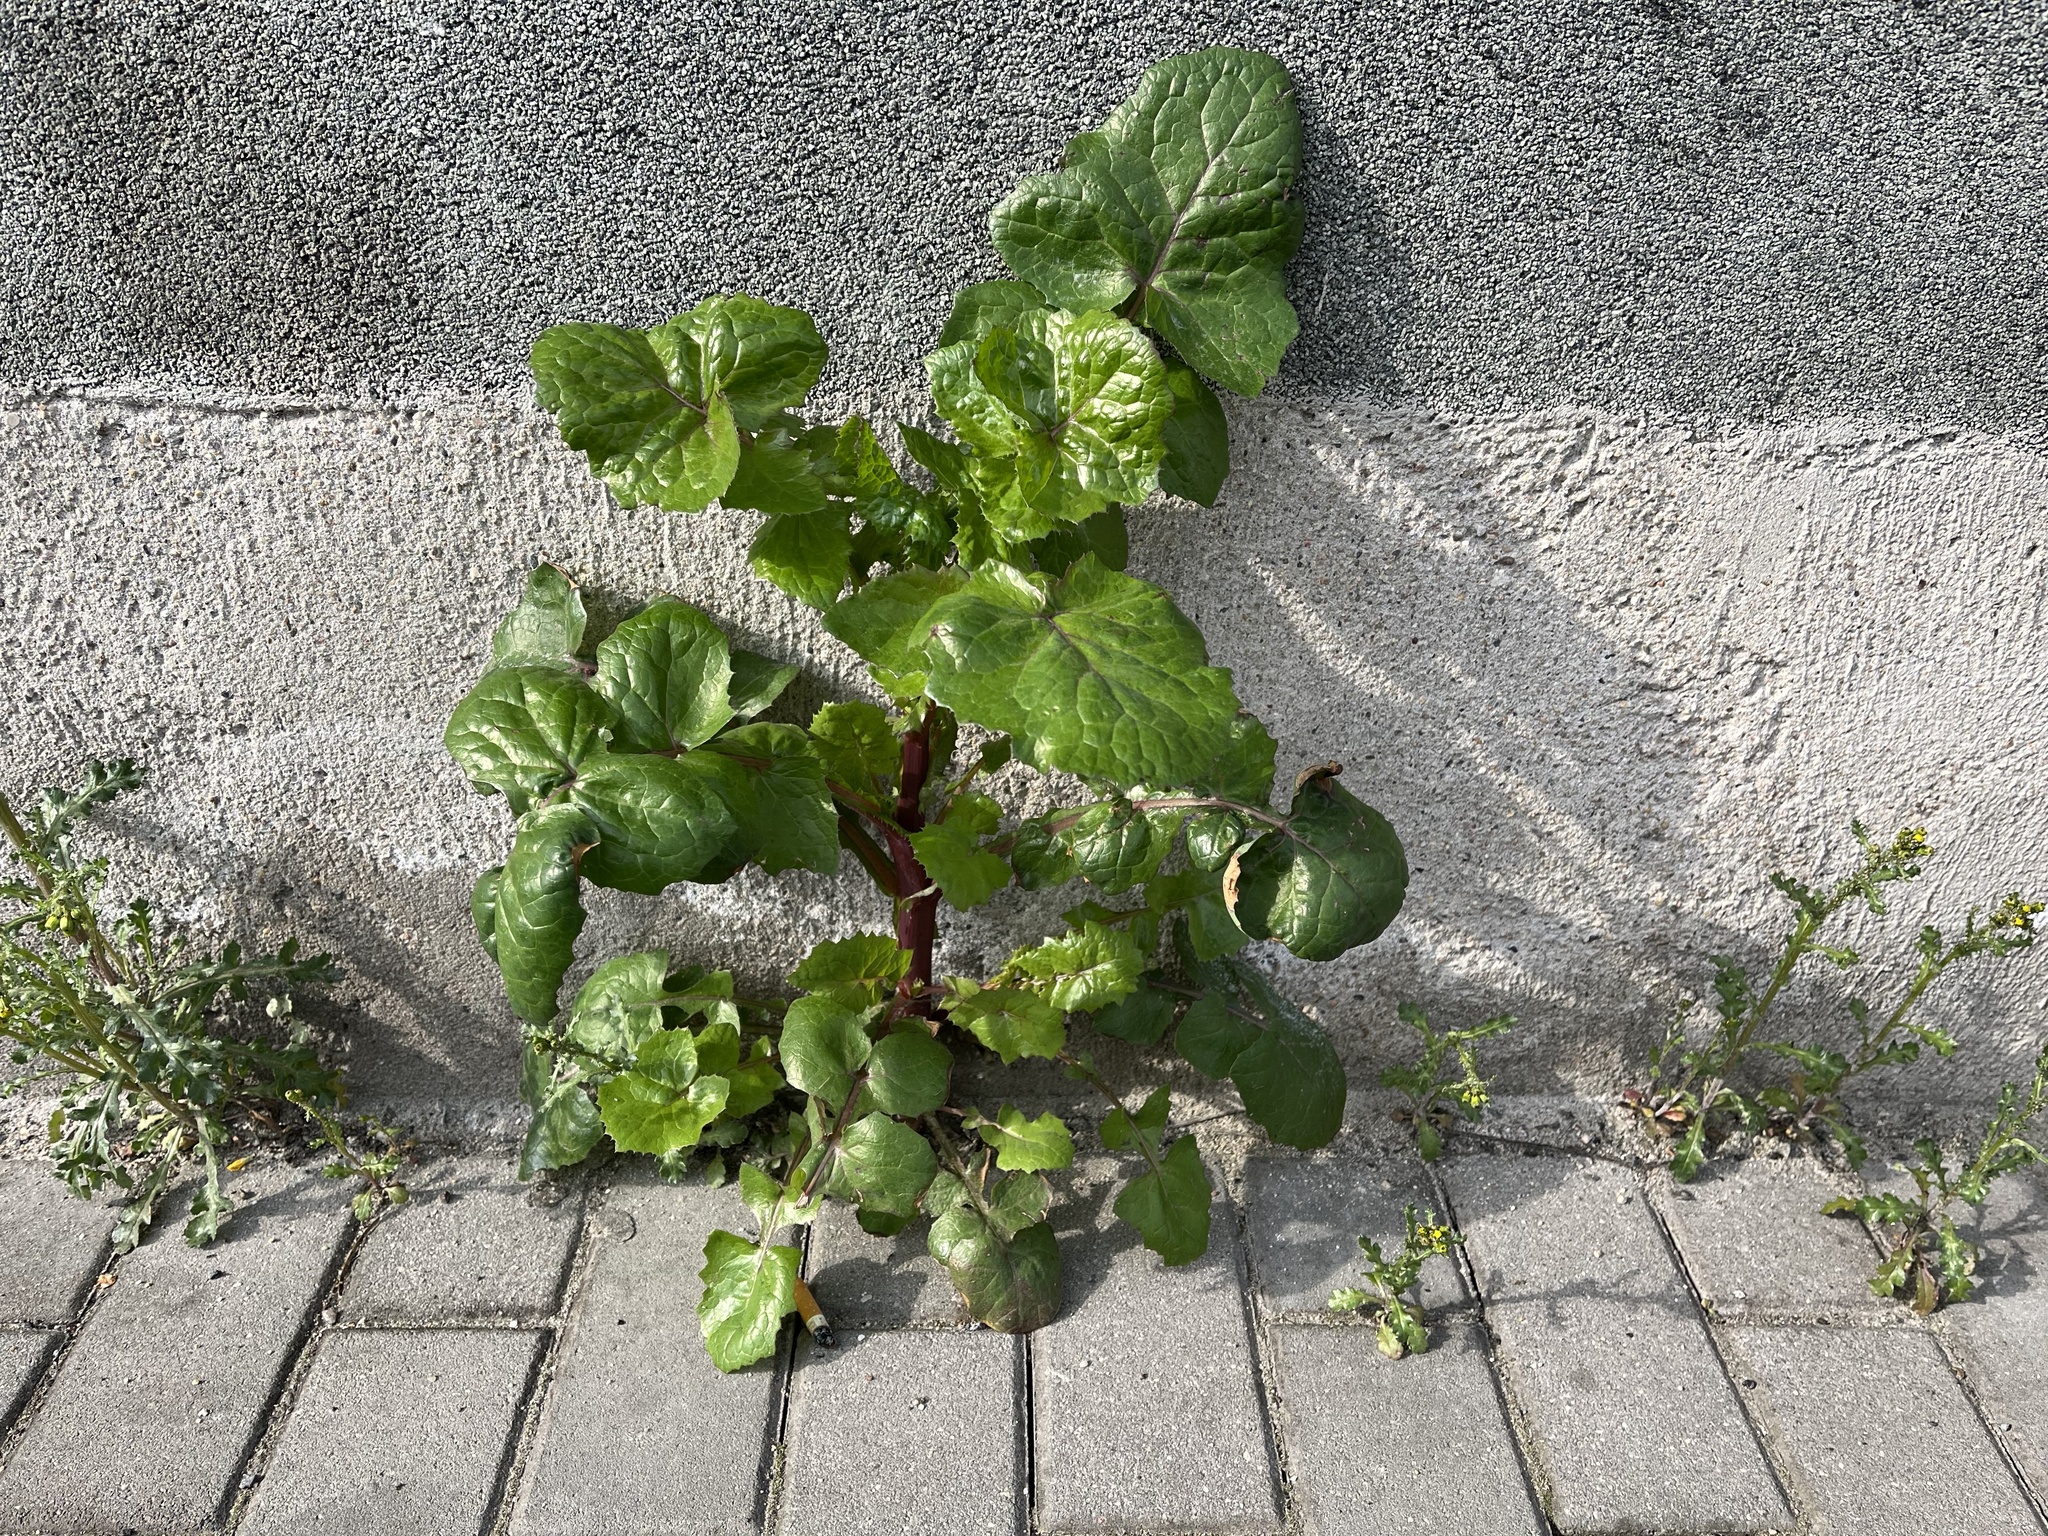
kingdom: Plantae
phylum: Tracheophyta
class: Magnoliopsida
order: Asterales
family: Asteraceae
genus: Sonchus
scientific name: Sonchus oleraceus
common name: Common sowthistle
